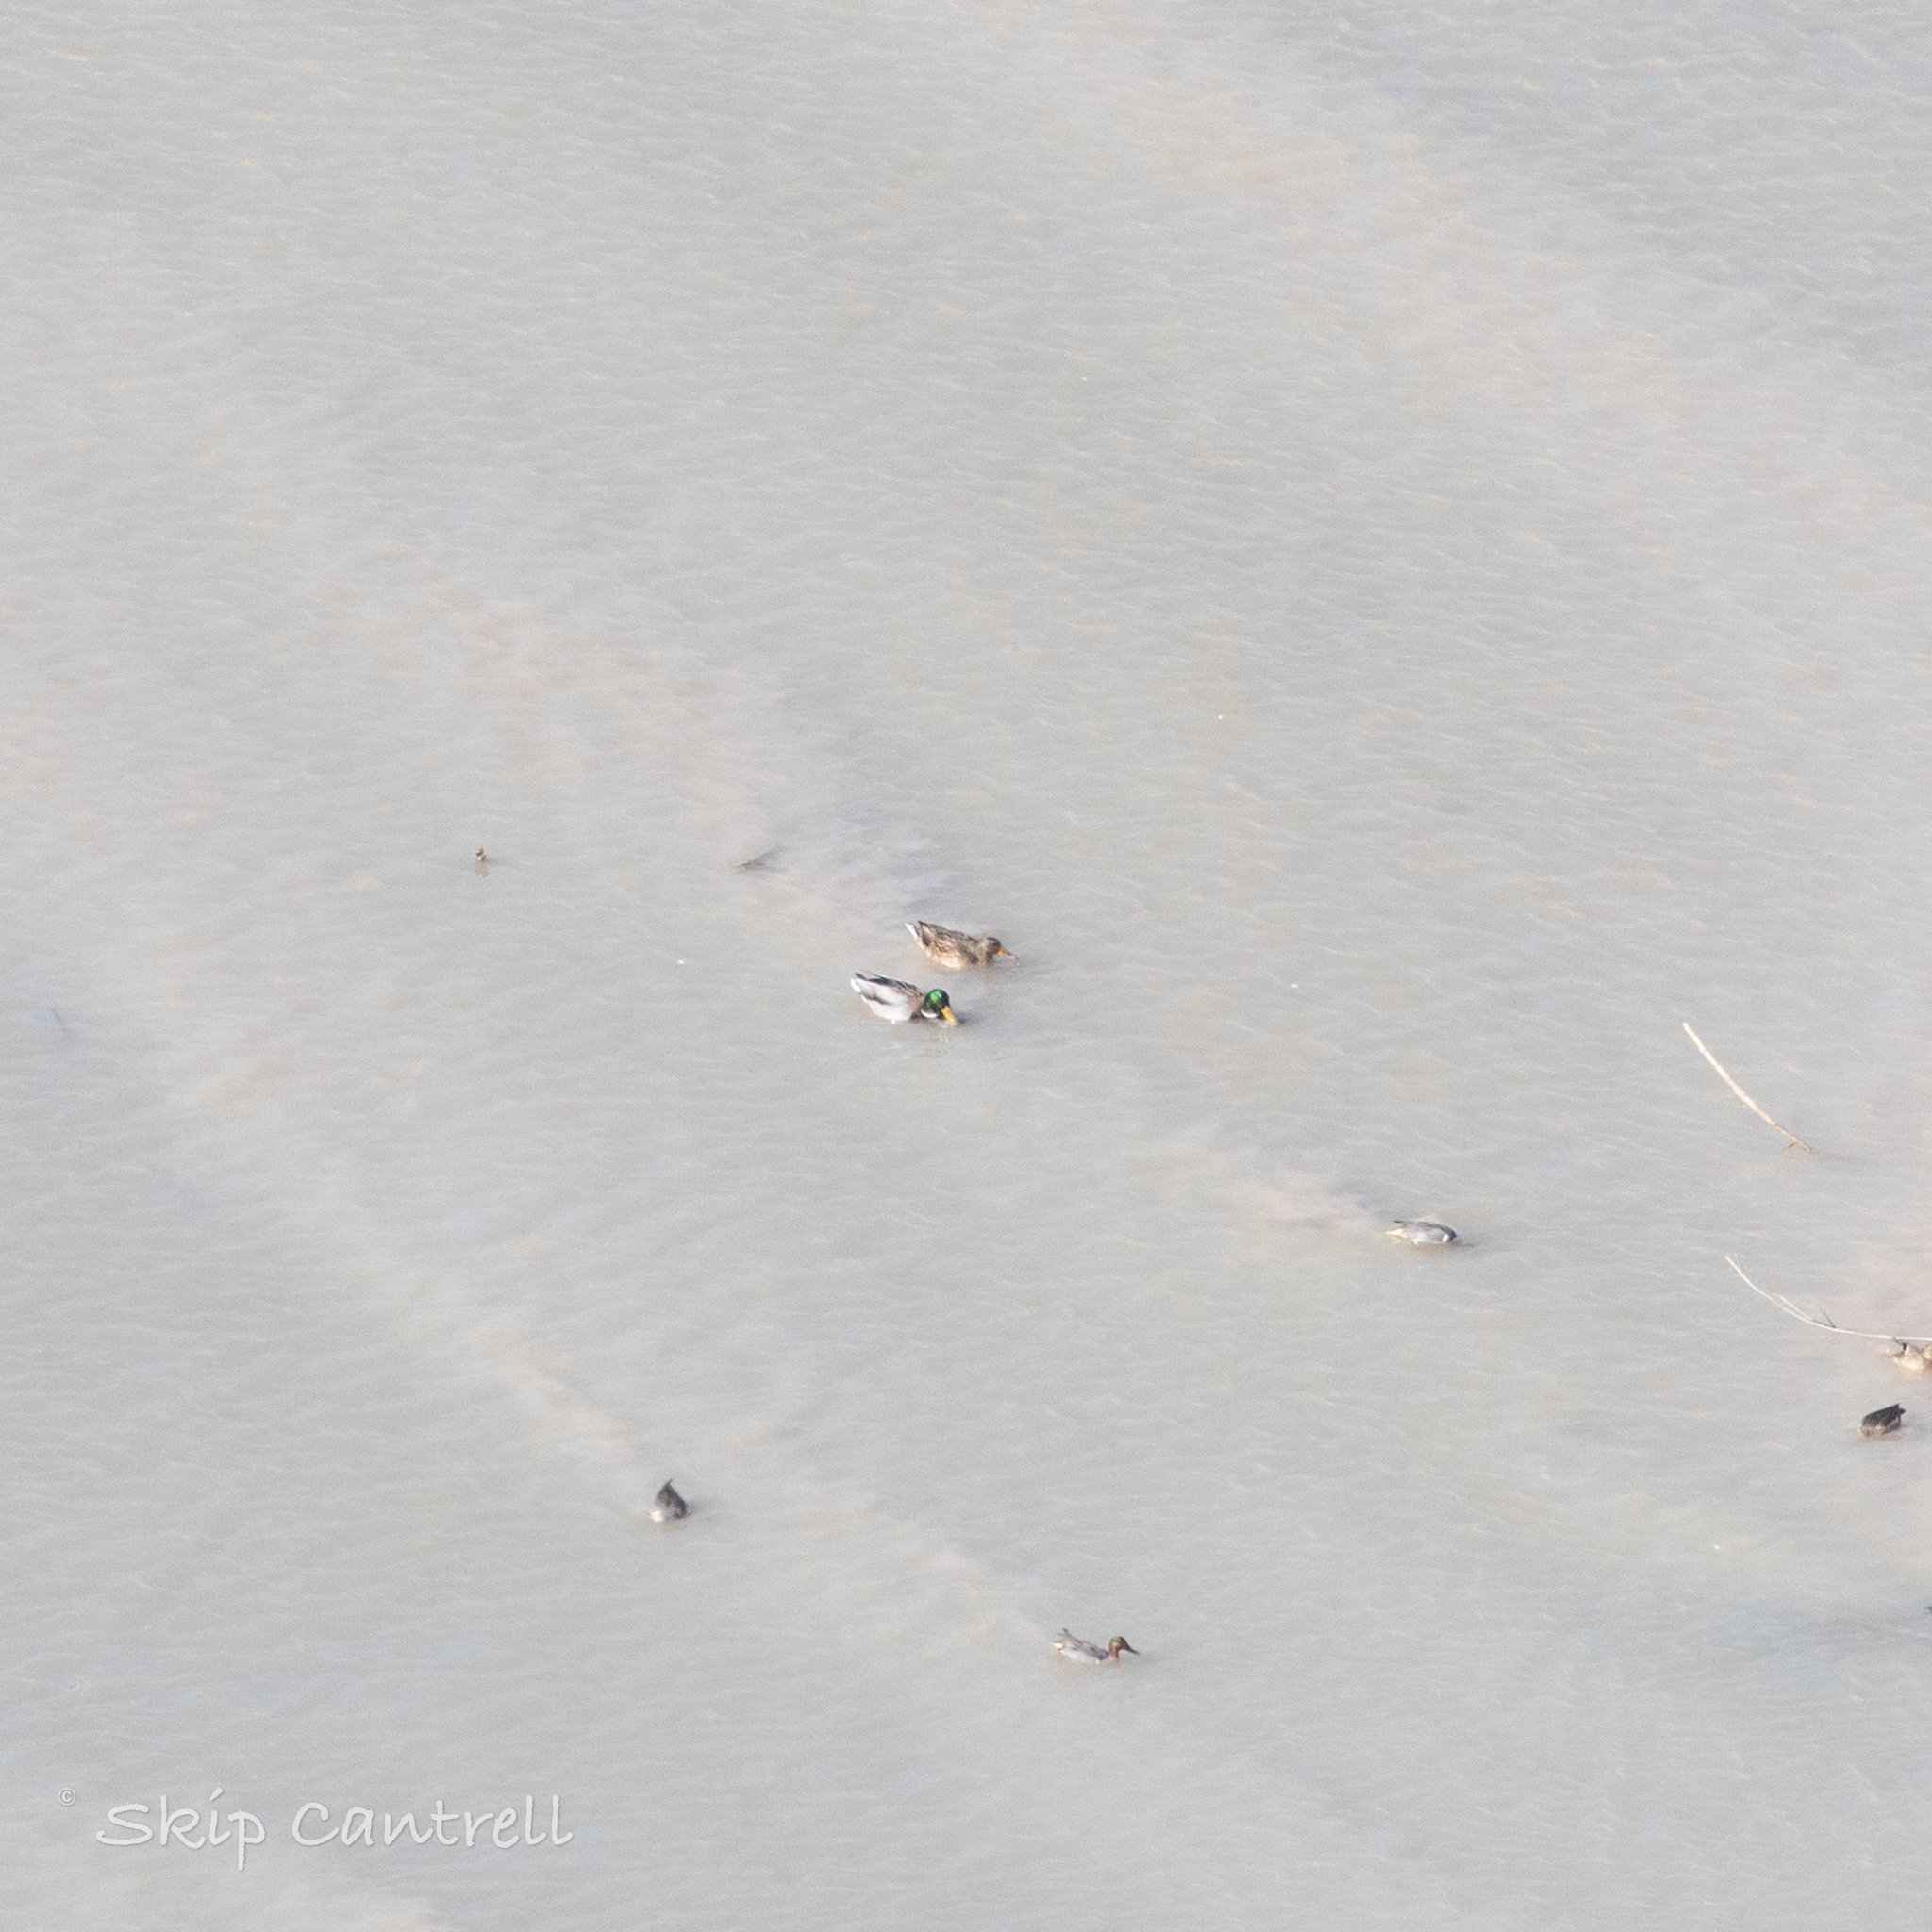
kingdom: Animalia
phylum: Chordata
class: Aves
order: Anseriformes
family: Anatidae
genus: Anas
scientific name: Anas platyrhynchos
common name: Mallard
